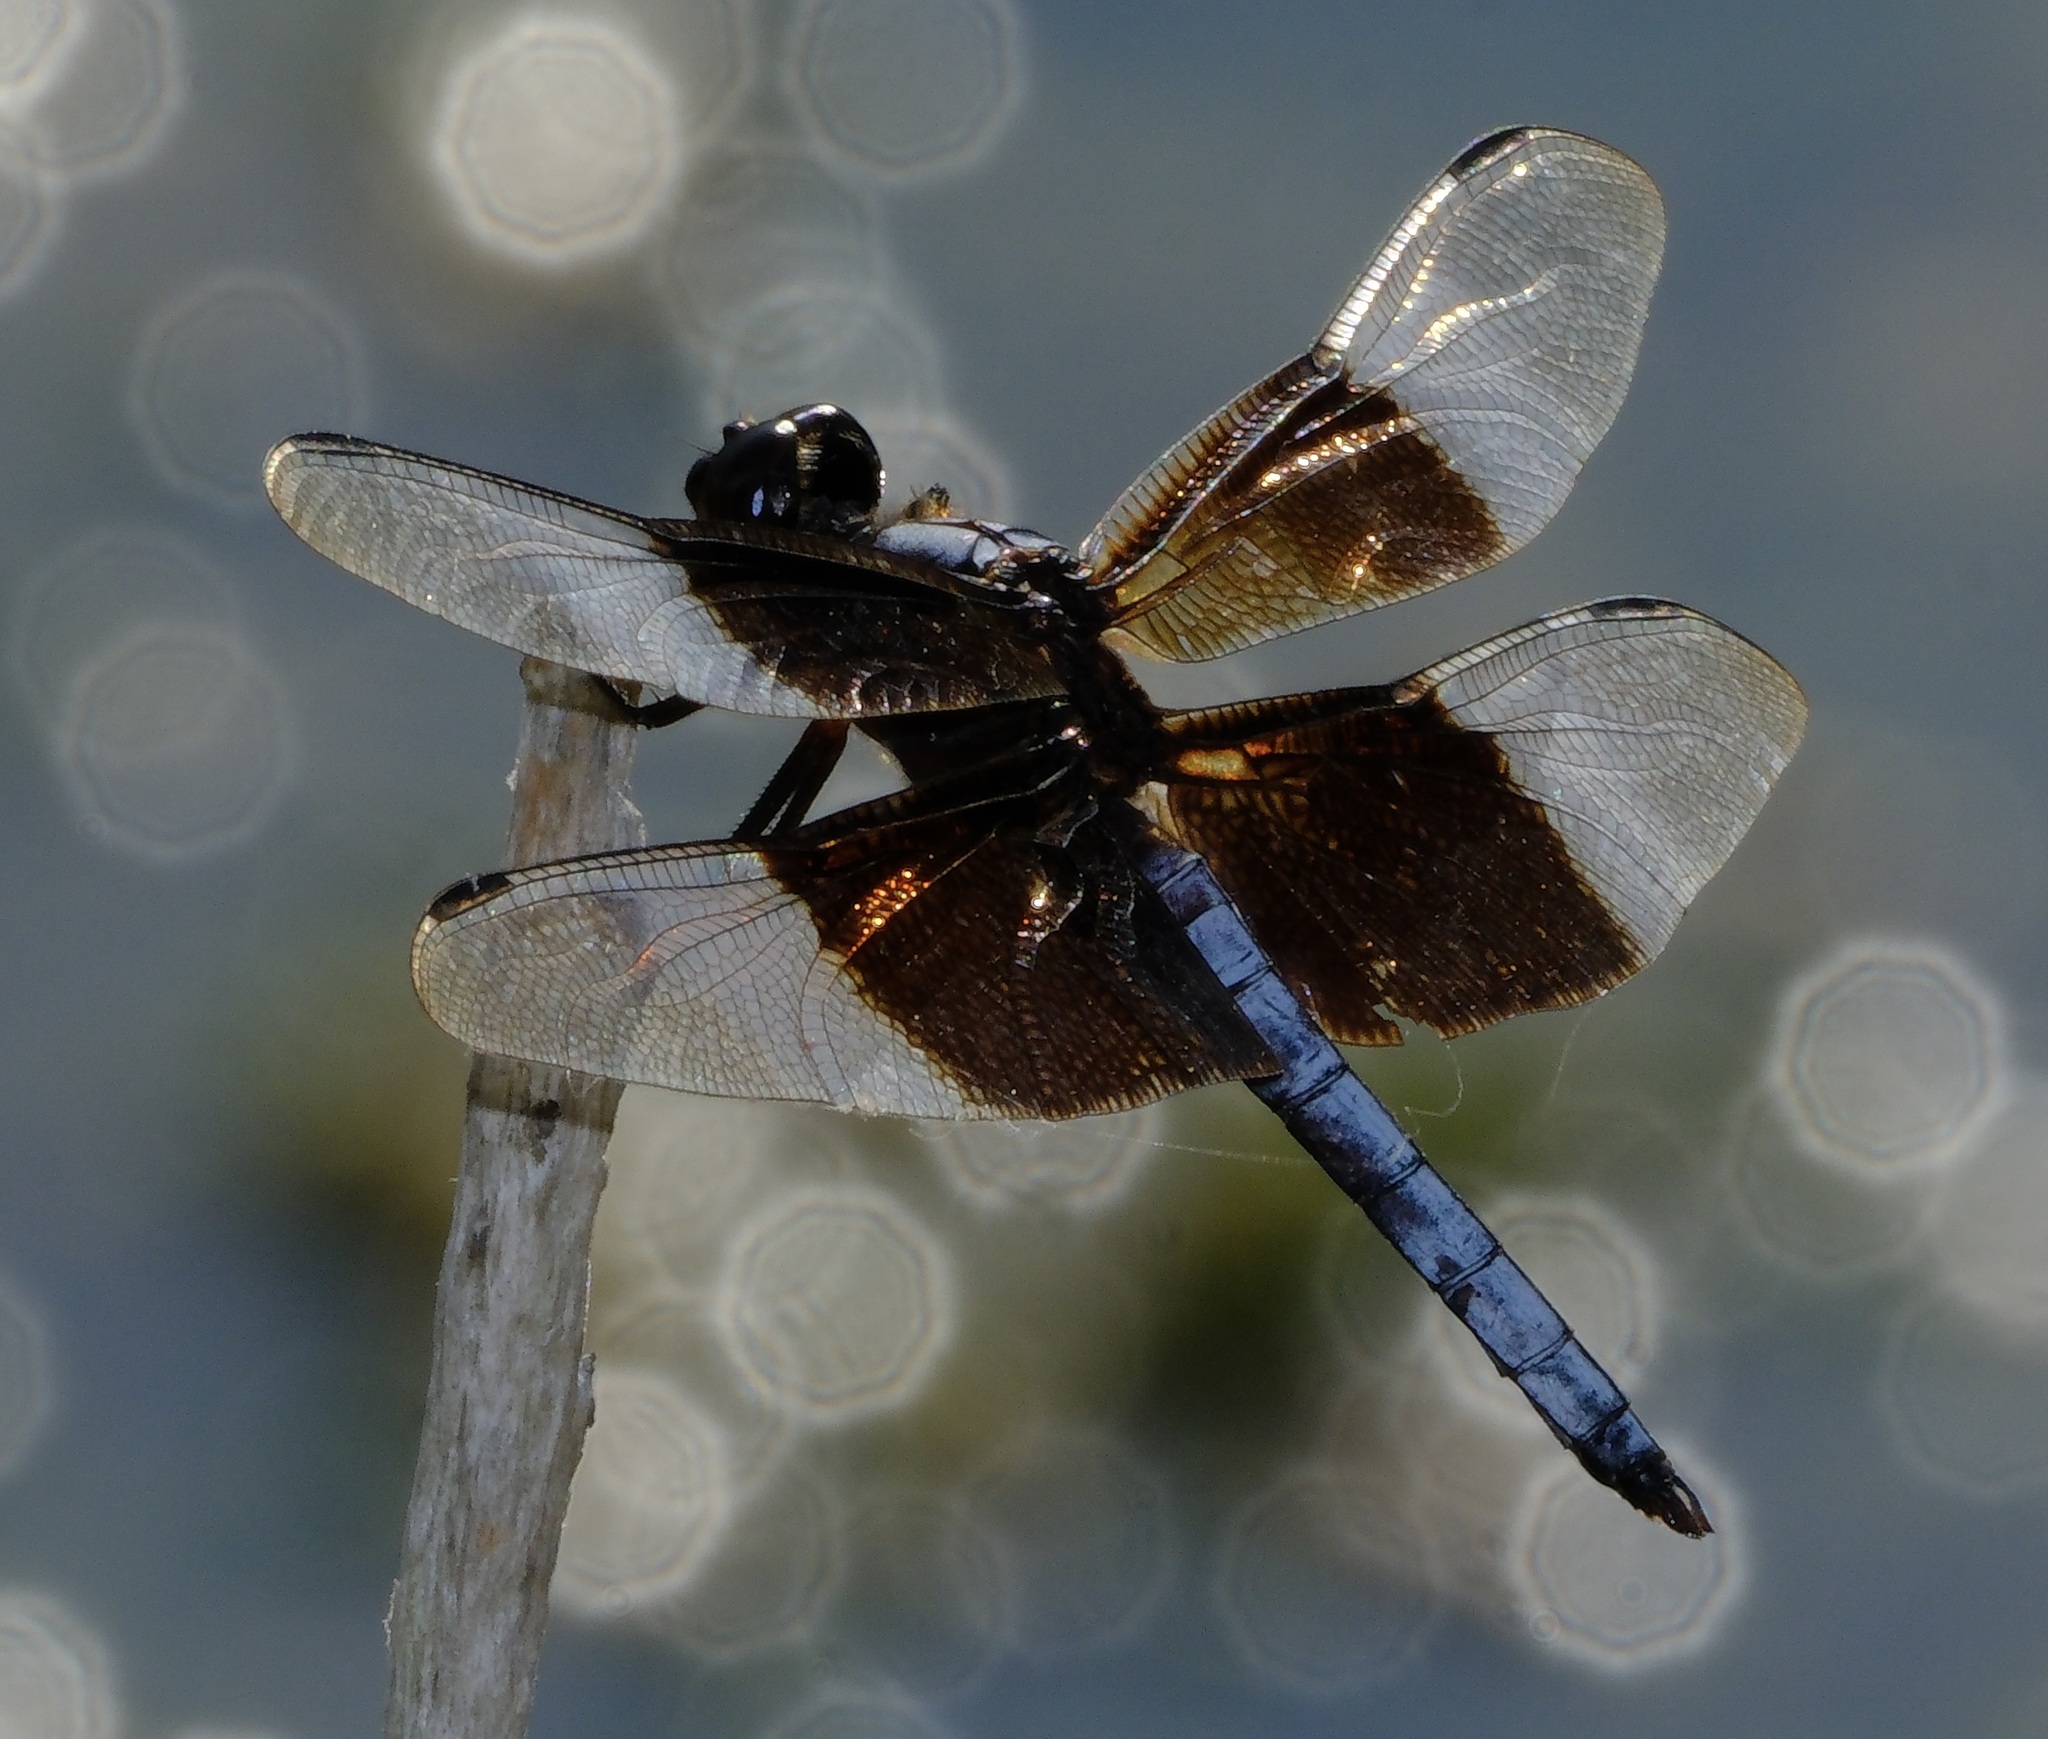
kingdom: Animalia
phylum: Arthropoda
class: Insecta
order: Odonata
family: Libellulidae
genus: Libellula
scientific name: Libellula luctuosa
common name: Widow skimmer
